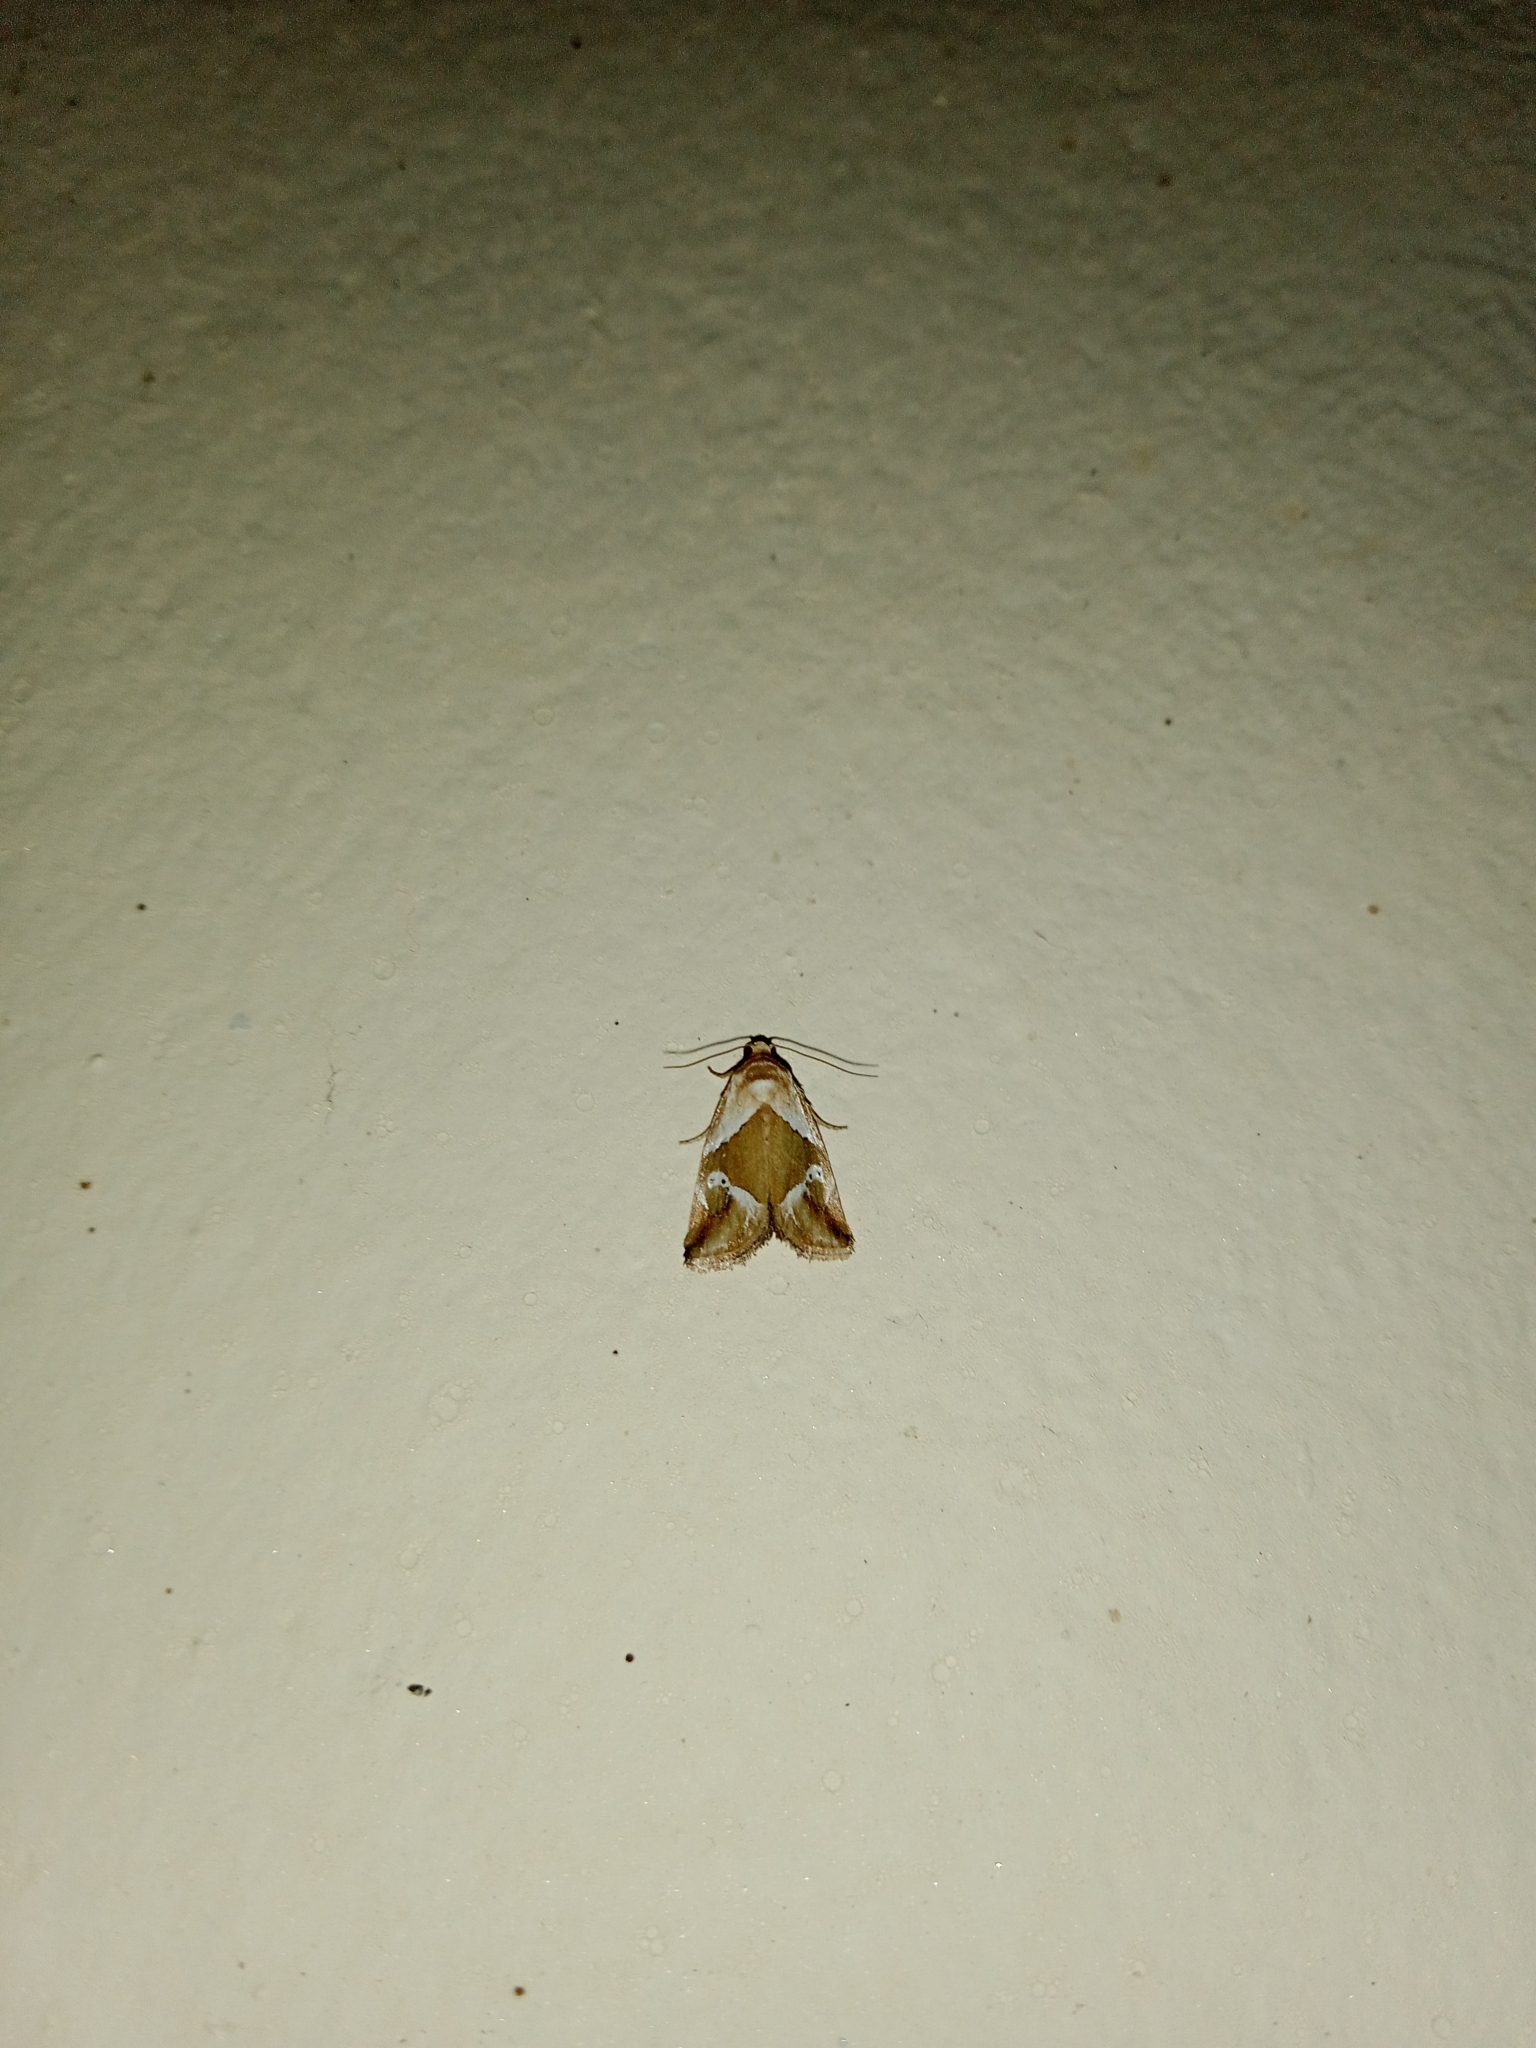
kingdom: Animalia
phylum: Arthropoda
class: Insecta
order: Lepidoptera
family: Noctuidae
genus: Maliattha
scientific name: Maliattha lativitta
